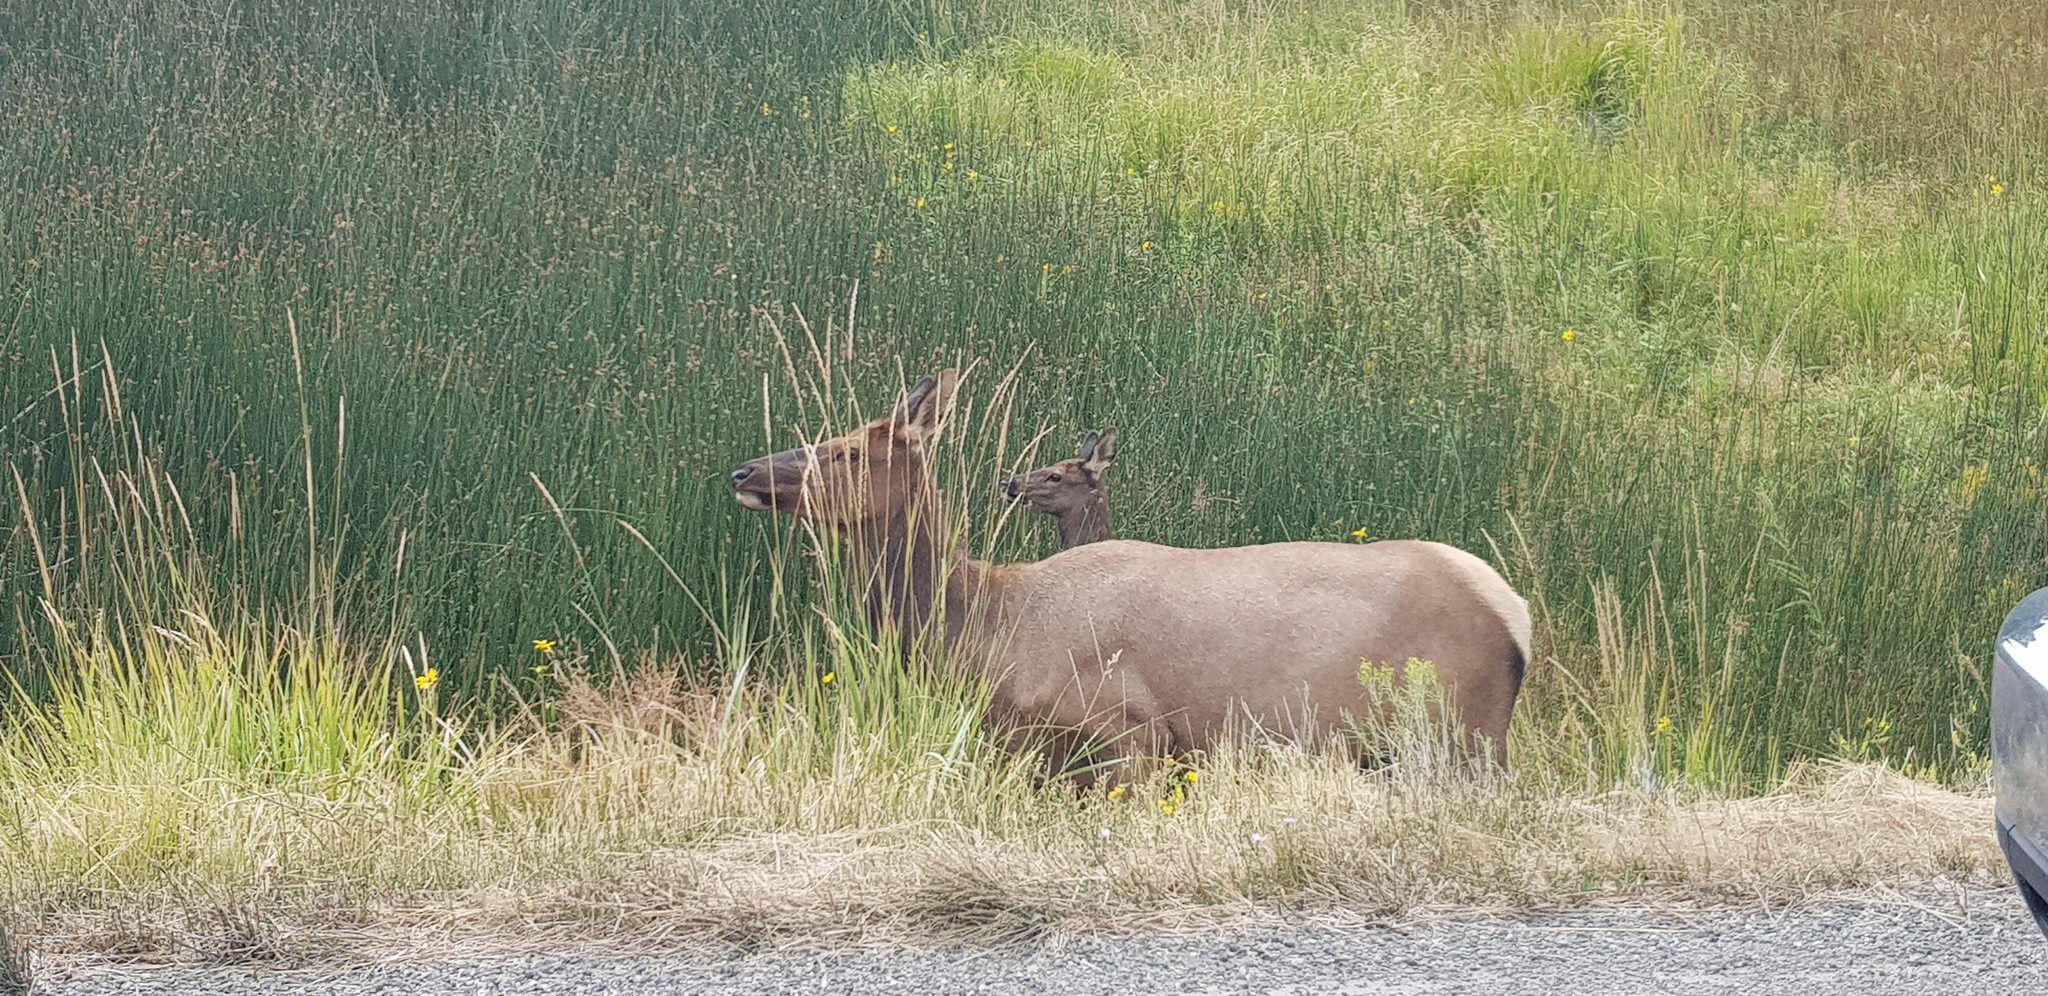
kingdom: Animalia
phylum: Chordata
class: Mammalia
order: Artiodactyla
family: Cervidae
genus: Cervus
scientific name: Cervus elaphus
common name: Red deer
